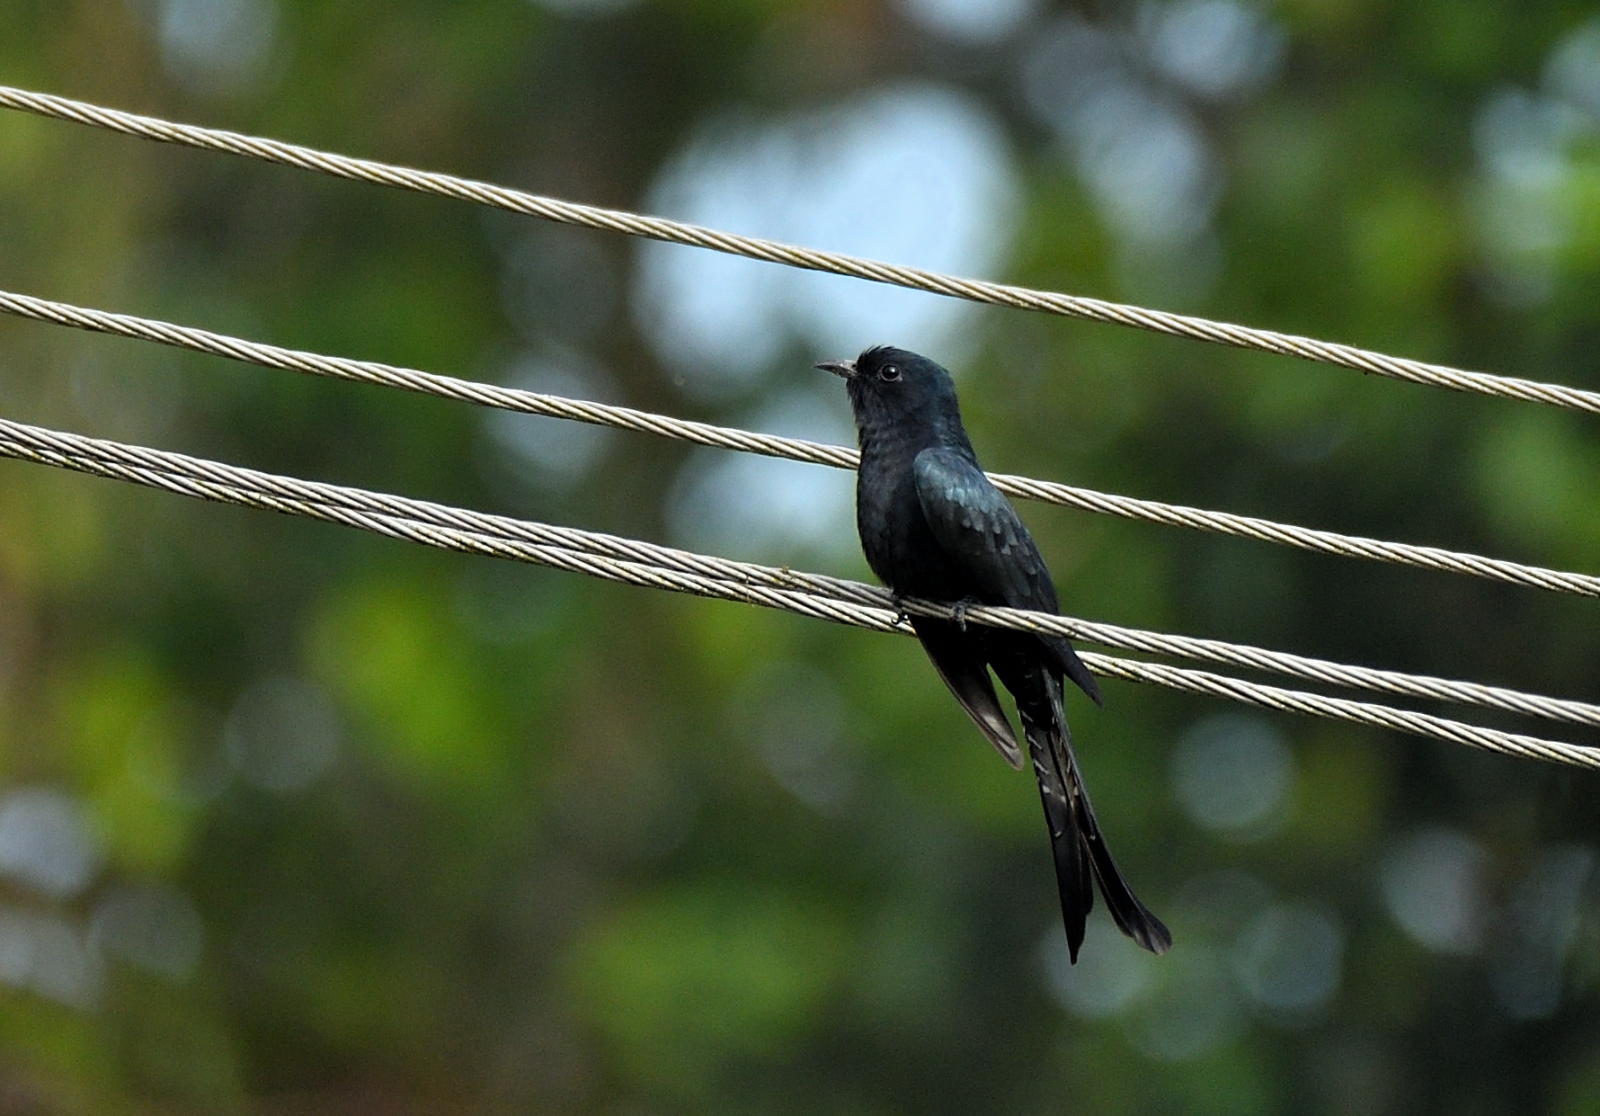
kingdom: Animalia
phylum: Chordata
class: Aves
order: Cuculiformes
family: Cuculidae
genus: Surniculus
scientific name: Surniculus lugubris
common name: Square-tailed drongo-cuckoo
